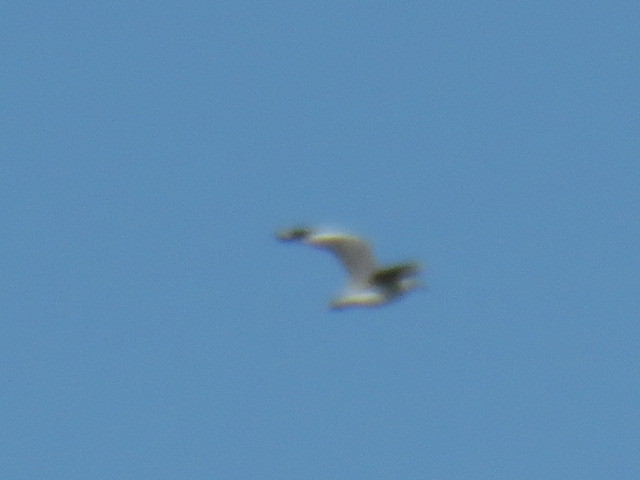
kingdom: Animalia
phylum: Chordata
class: Aves
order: Charadriiformes
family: Laridae
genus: Larus
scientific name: Larus dominicanus
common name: Kelp gull
